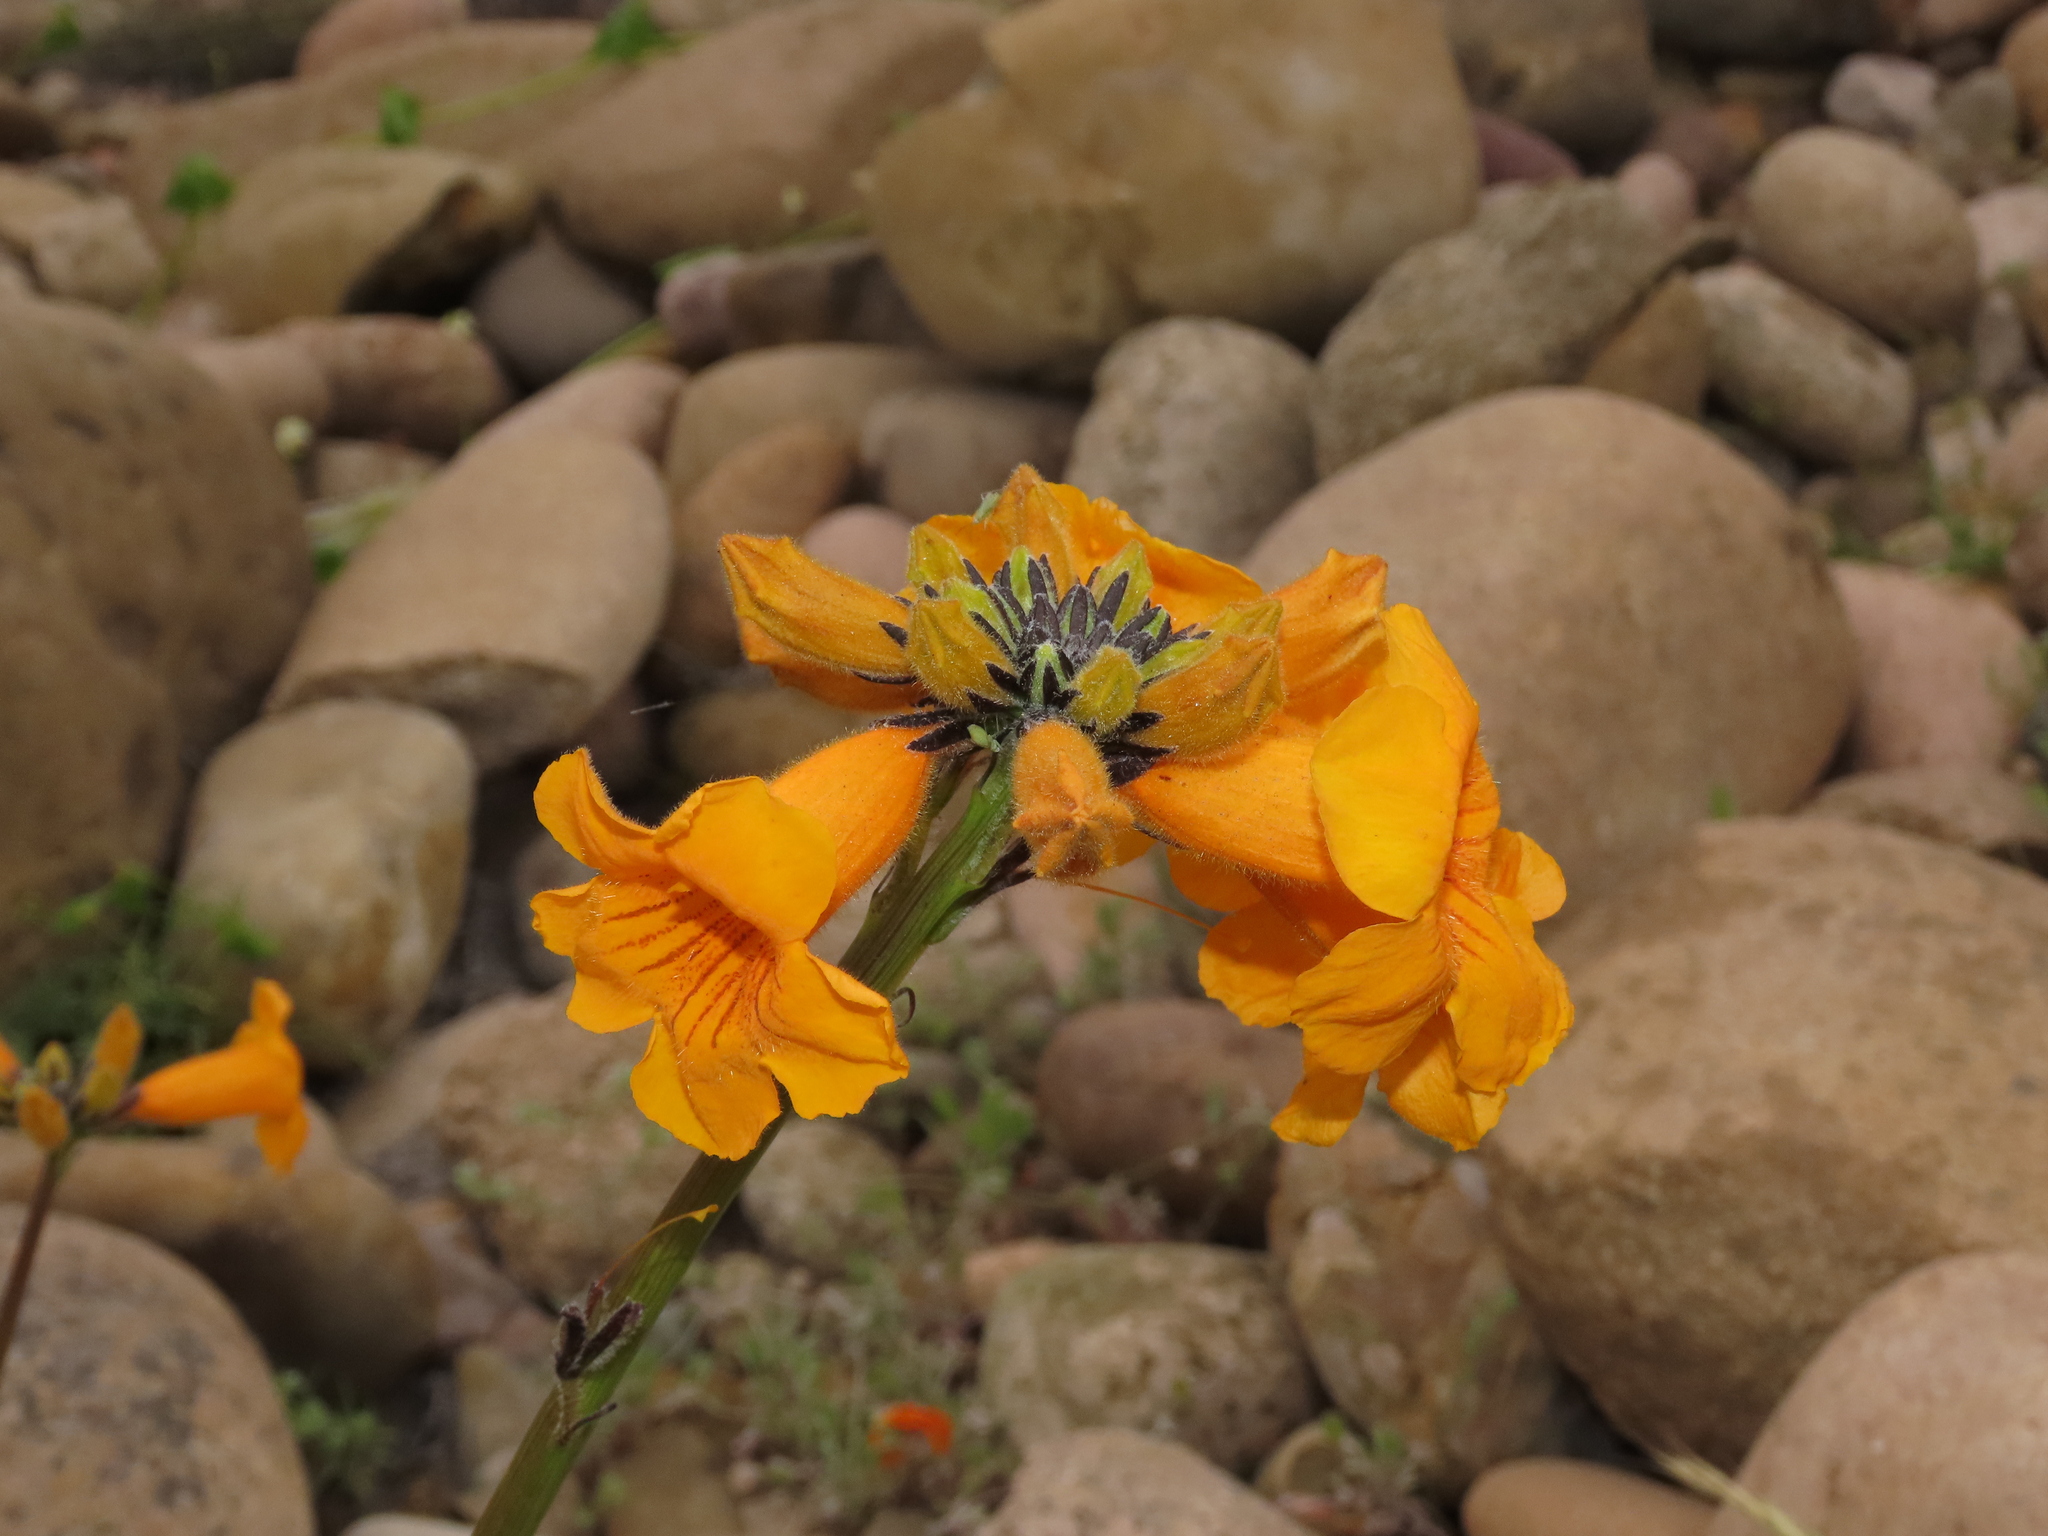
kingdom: Plantae
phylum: Tracheophyta
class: Magnoliopsida
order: Lamiales
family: Bignoniaceae
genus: Argylia
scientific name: Argylia radiata
